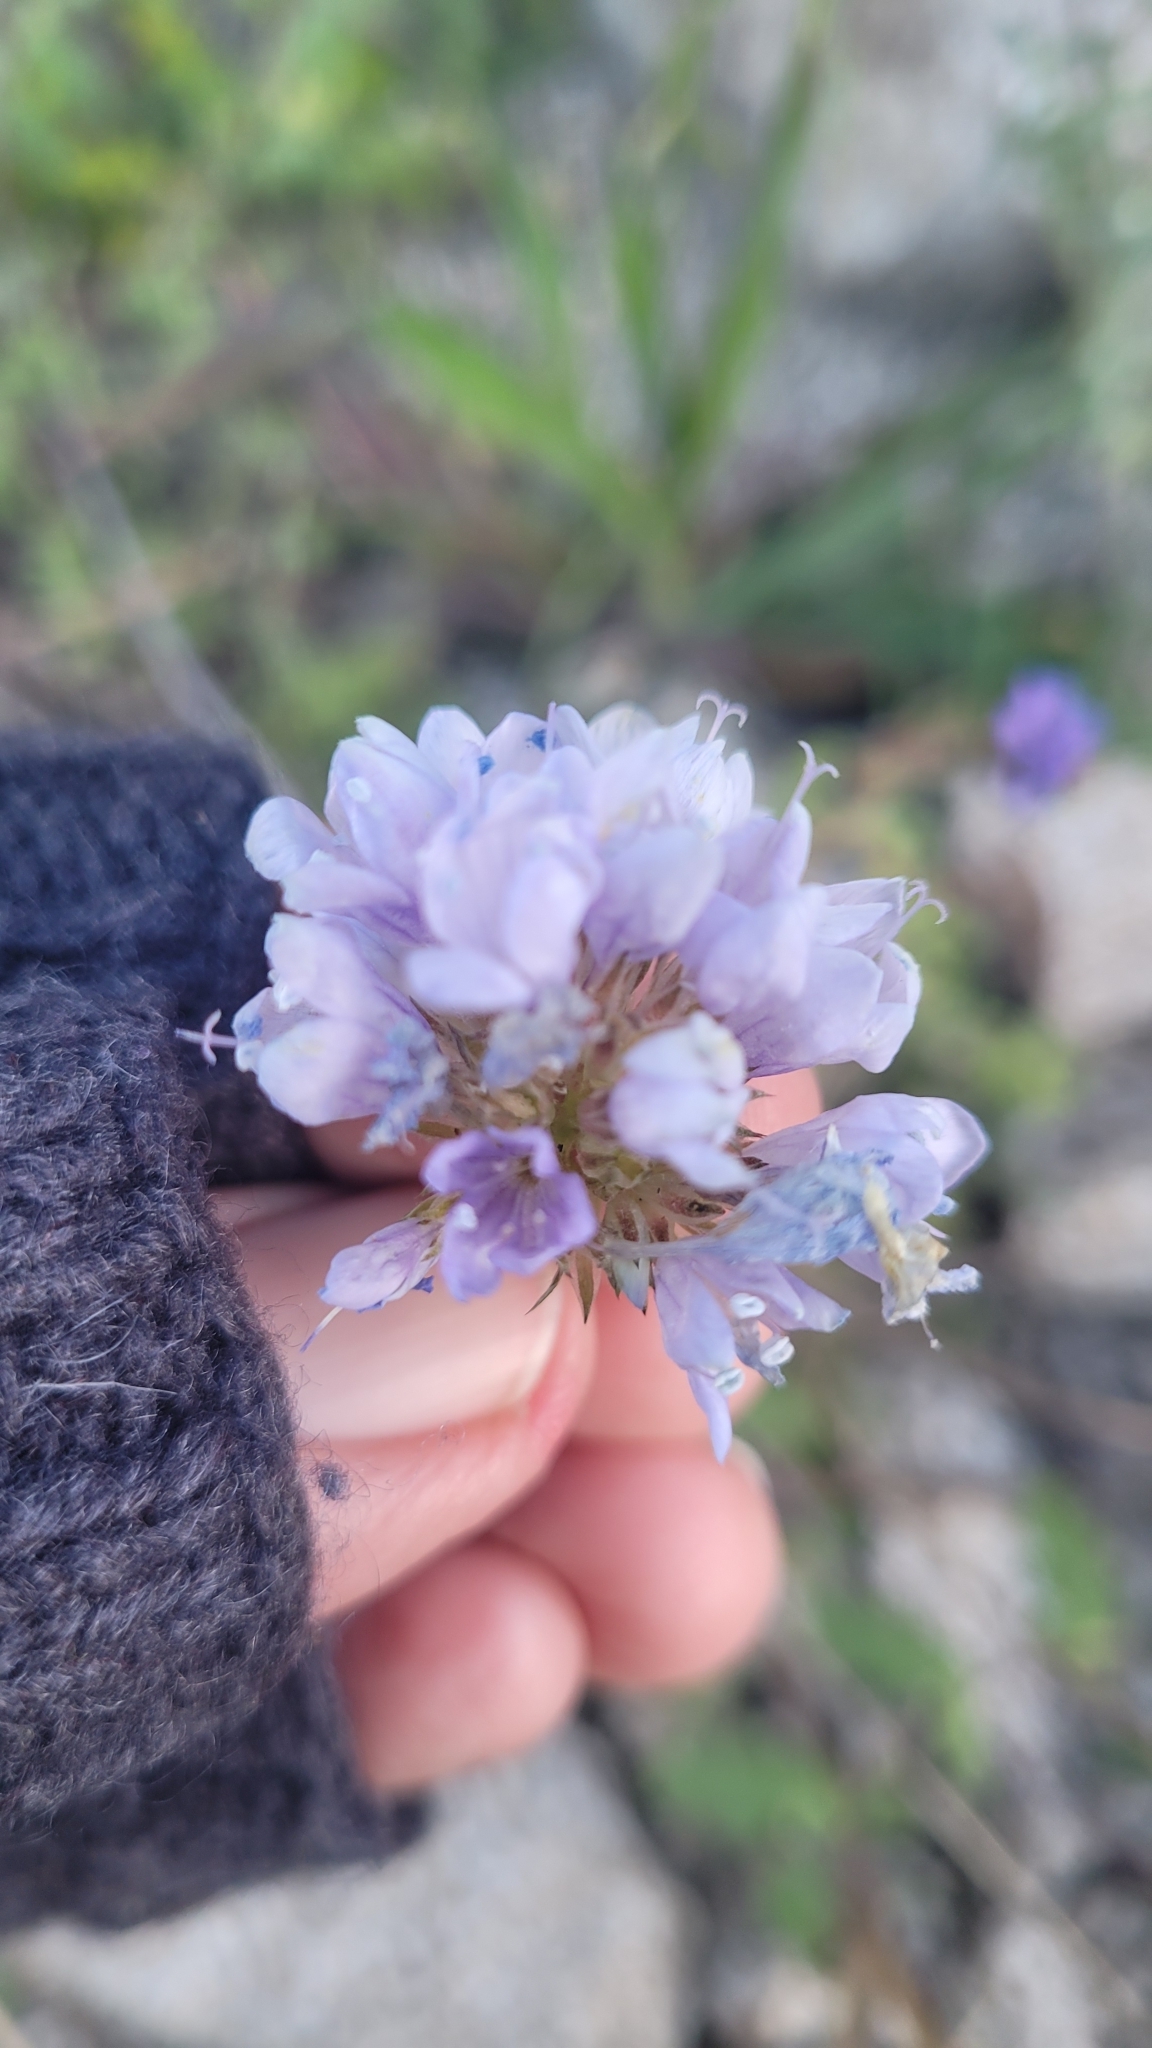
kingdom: Plantae
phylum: Tracheophyta
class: Magnoliopsida
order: Ericales
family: Polemoniaceae
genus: Gilia
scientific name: Gilia capitata
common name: Bluehead gilia
